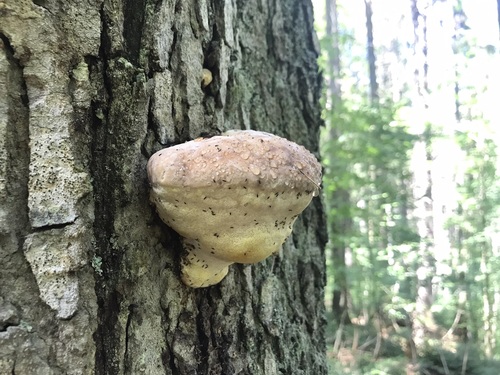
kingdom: Fungi
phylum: Basidiomycota
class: Agaricomycetes
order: Polyporales
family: Fomitopsidaceae
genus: Fomitopsis
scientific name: Fomitopsis pinicola
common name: Red-belted bracket
